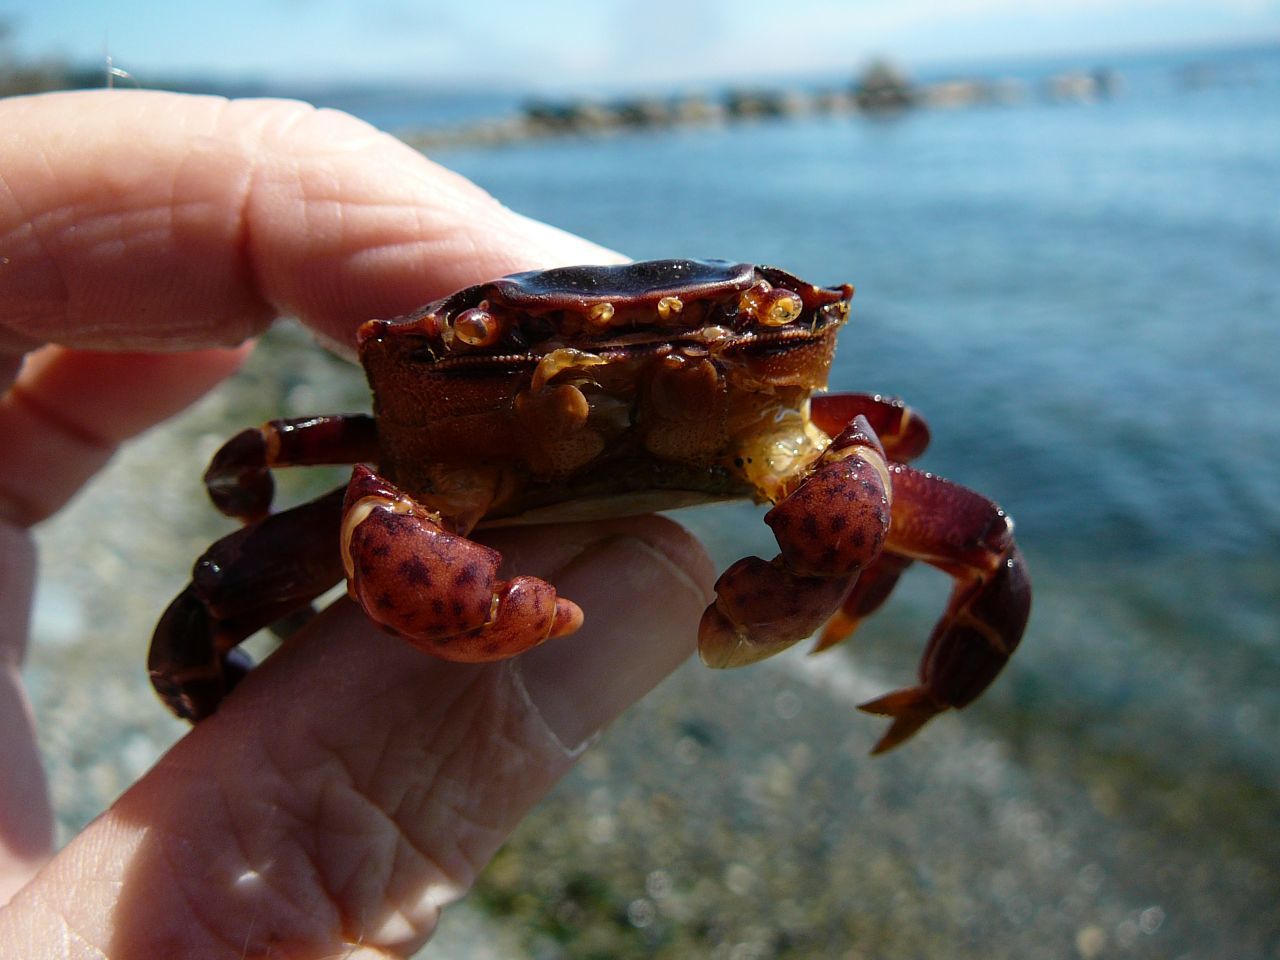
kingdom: Animalia
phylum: Arthropoda
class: Malacostraca
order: Decapoda
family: Varunidae
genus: Hemigrapsus
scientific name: Hemigrapsus nudus
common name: Purple shore crab
